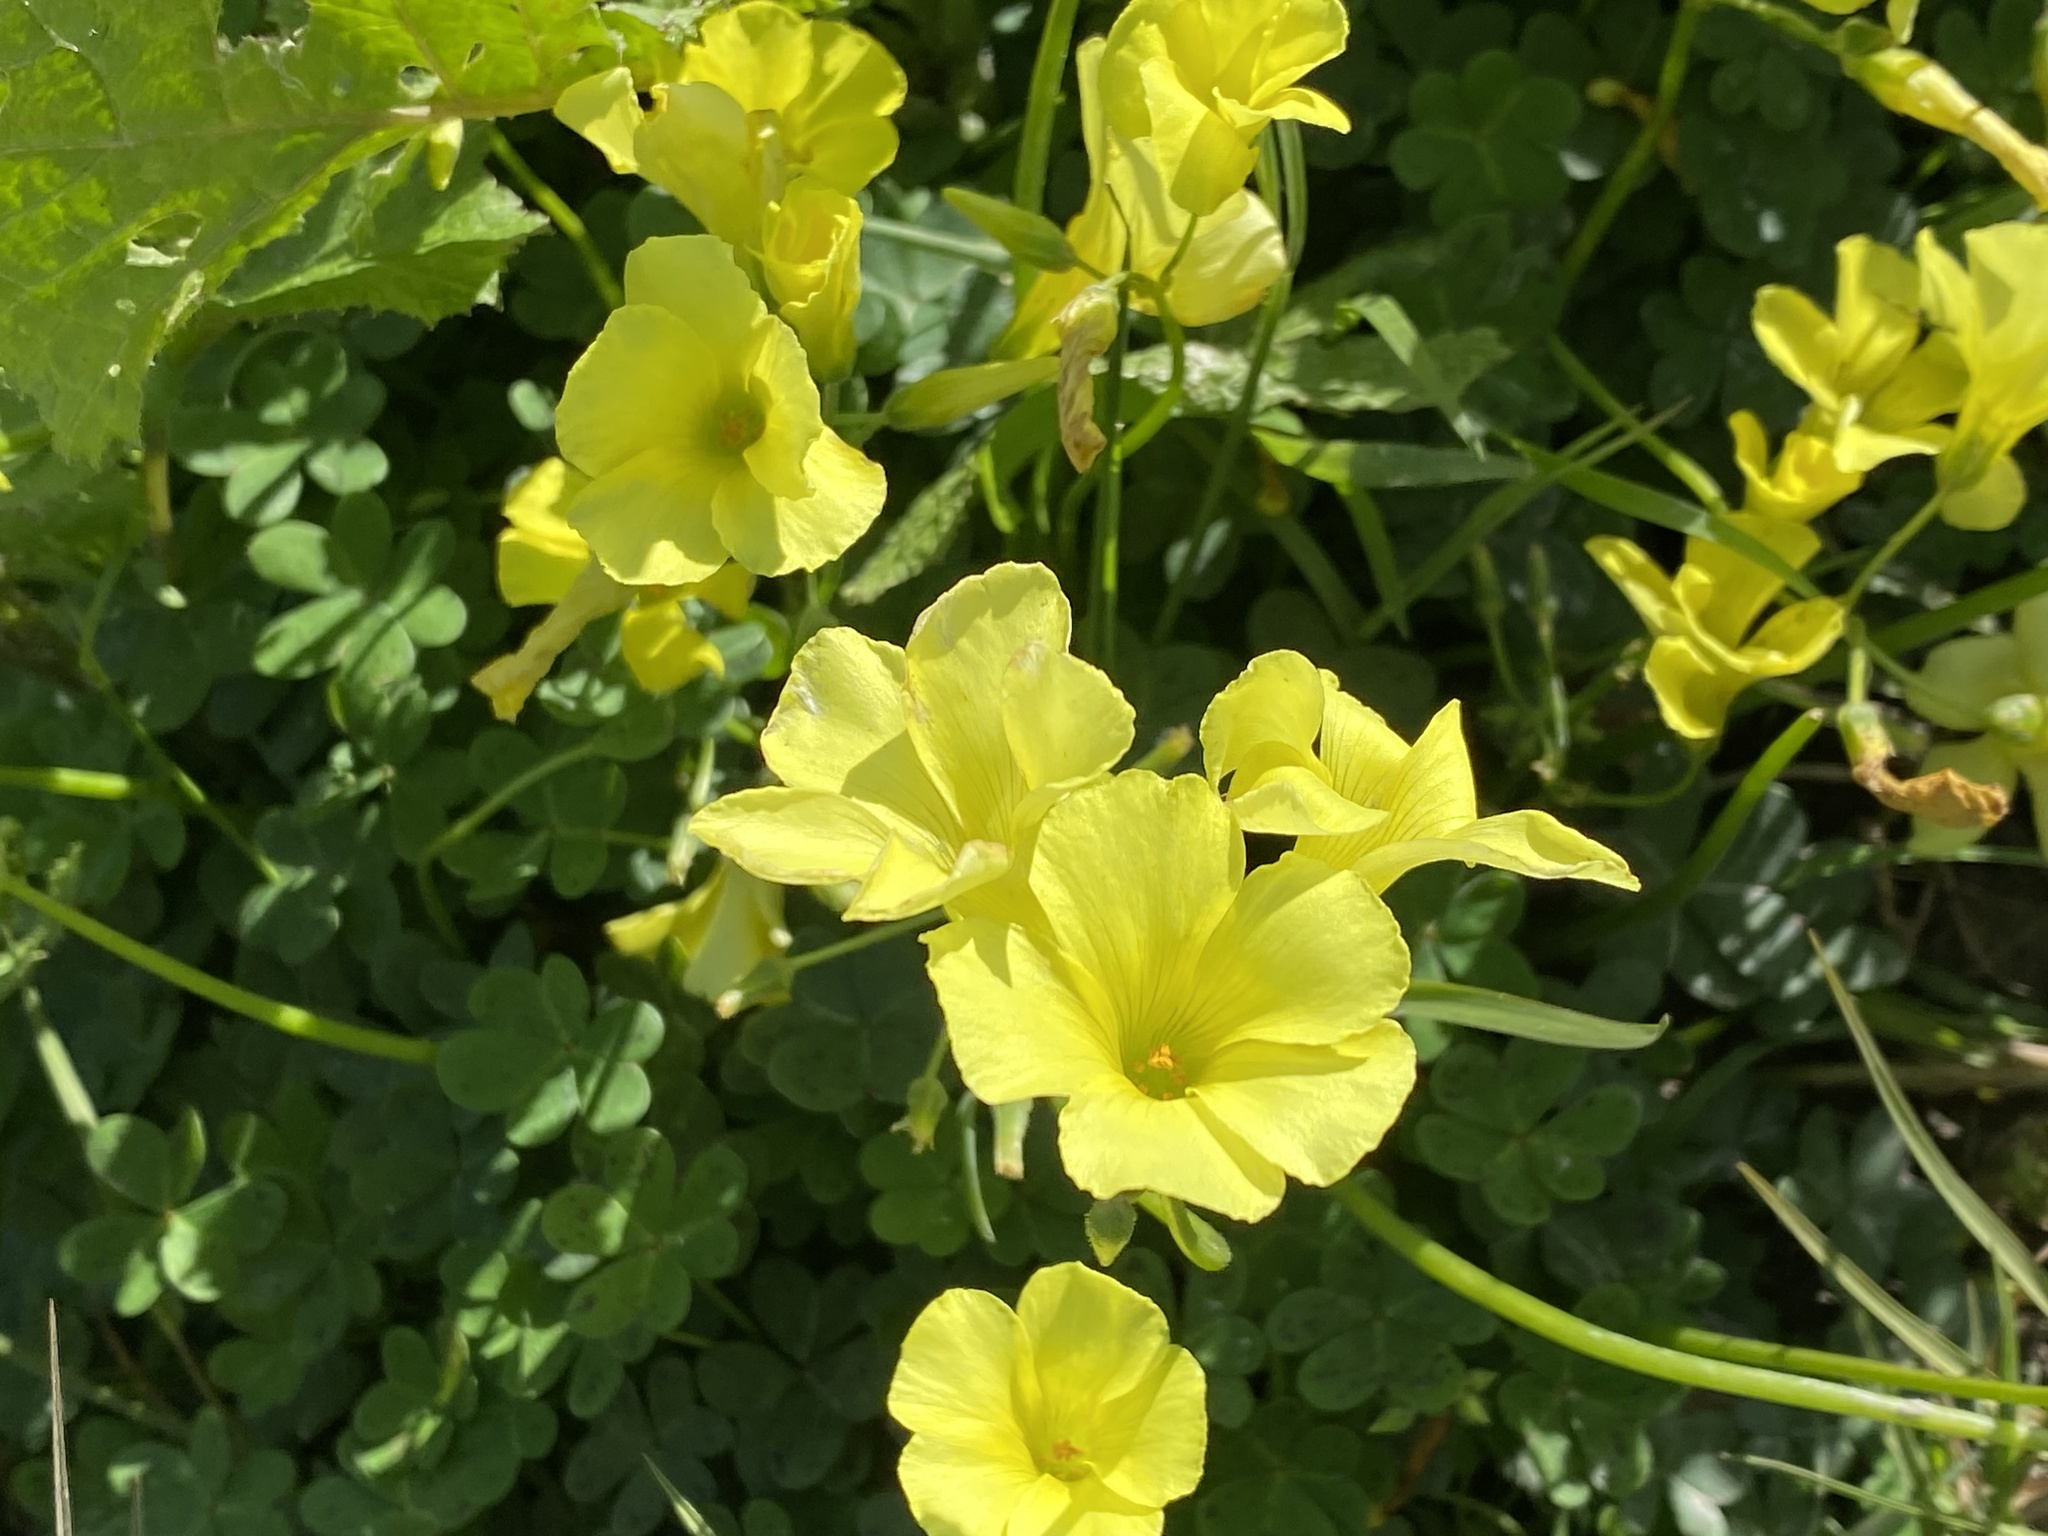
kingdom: Plantae
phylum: Tracheophyta
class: Magnoliopsida
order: Oxalidales
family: Oxalidaceae
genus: Oxalis
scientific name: Oxalis pes-caprae
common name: Bermuda-buttercup
